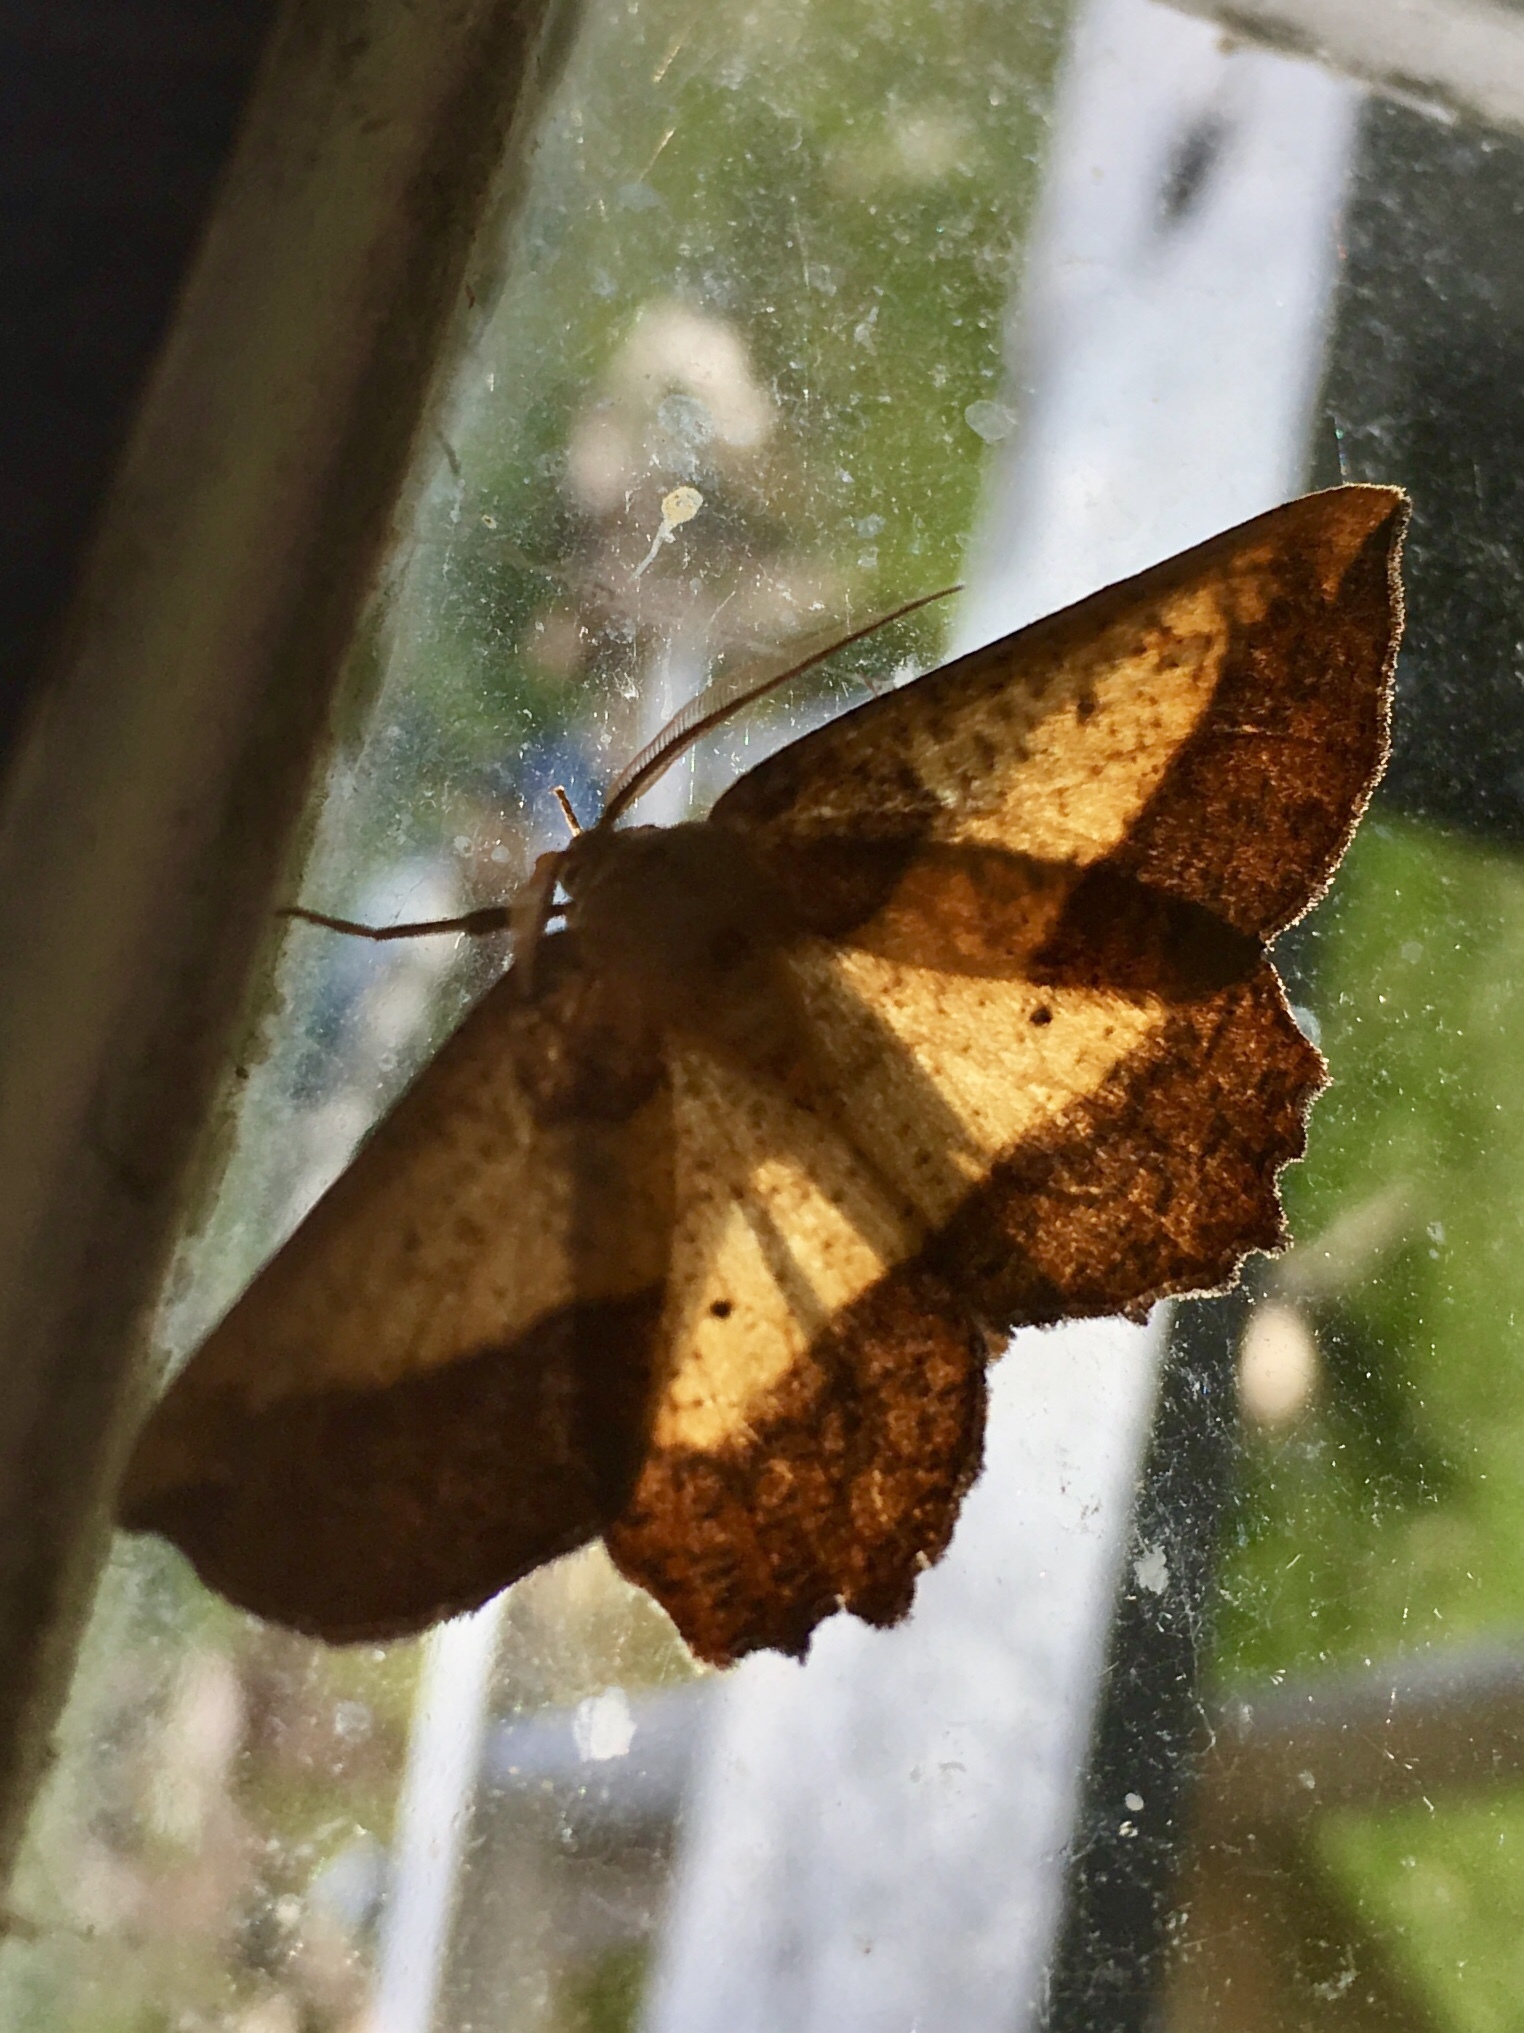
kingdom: Animalia
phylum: Arthropoda
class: Insecta
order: Lepidoptera
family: Geometridae
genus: Euchlaena
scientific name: Euchlaena serrata
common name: Saw wing
